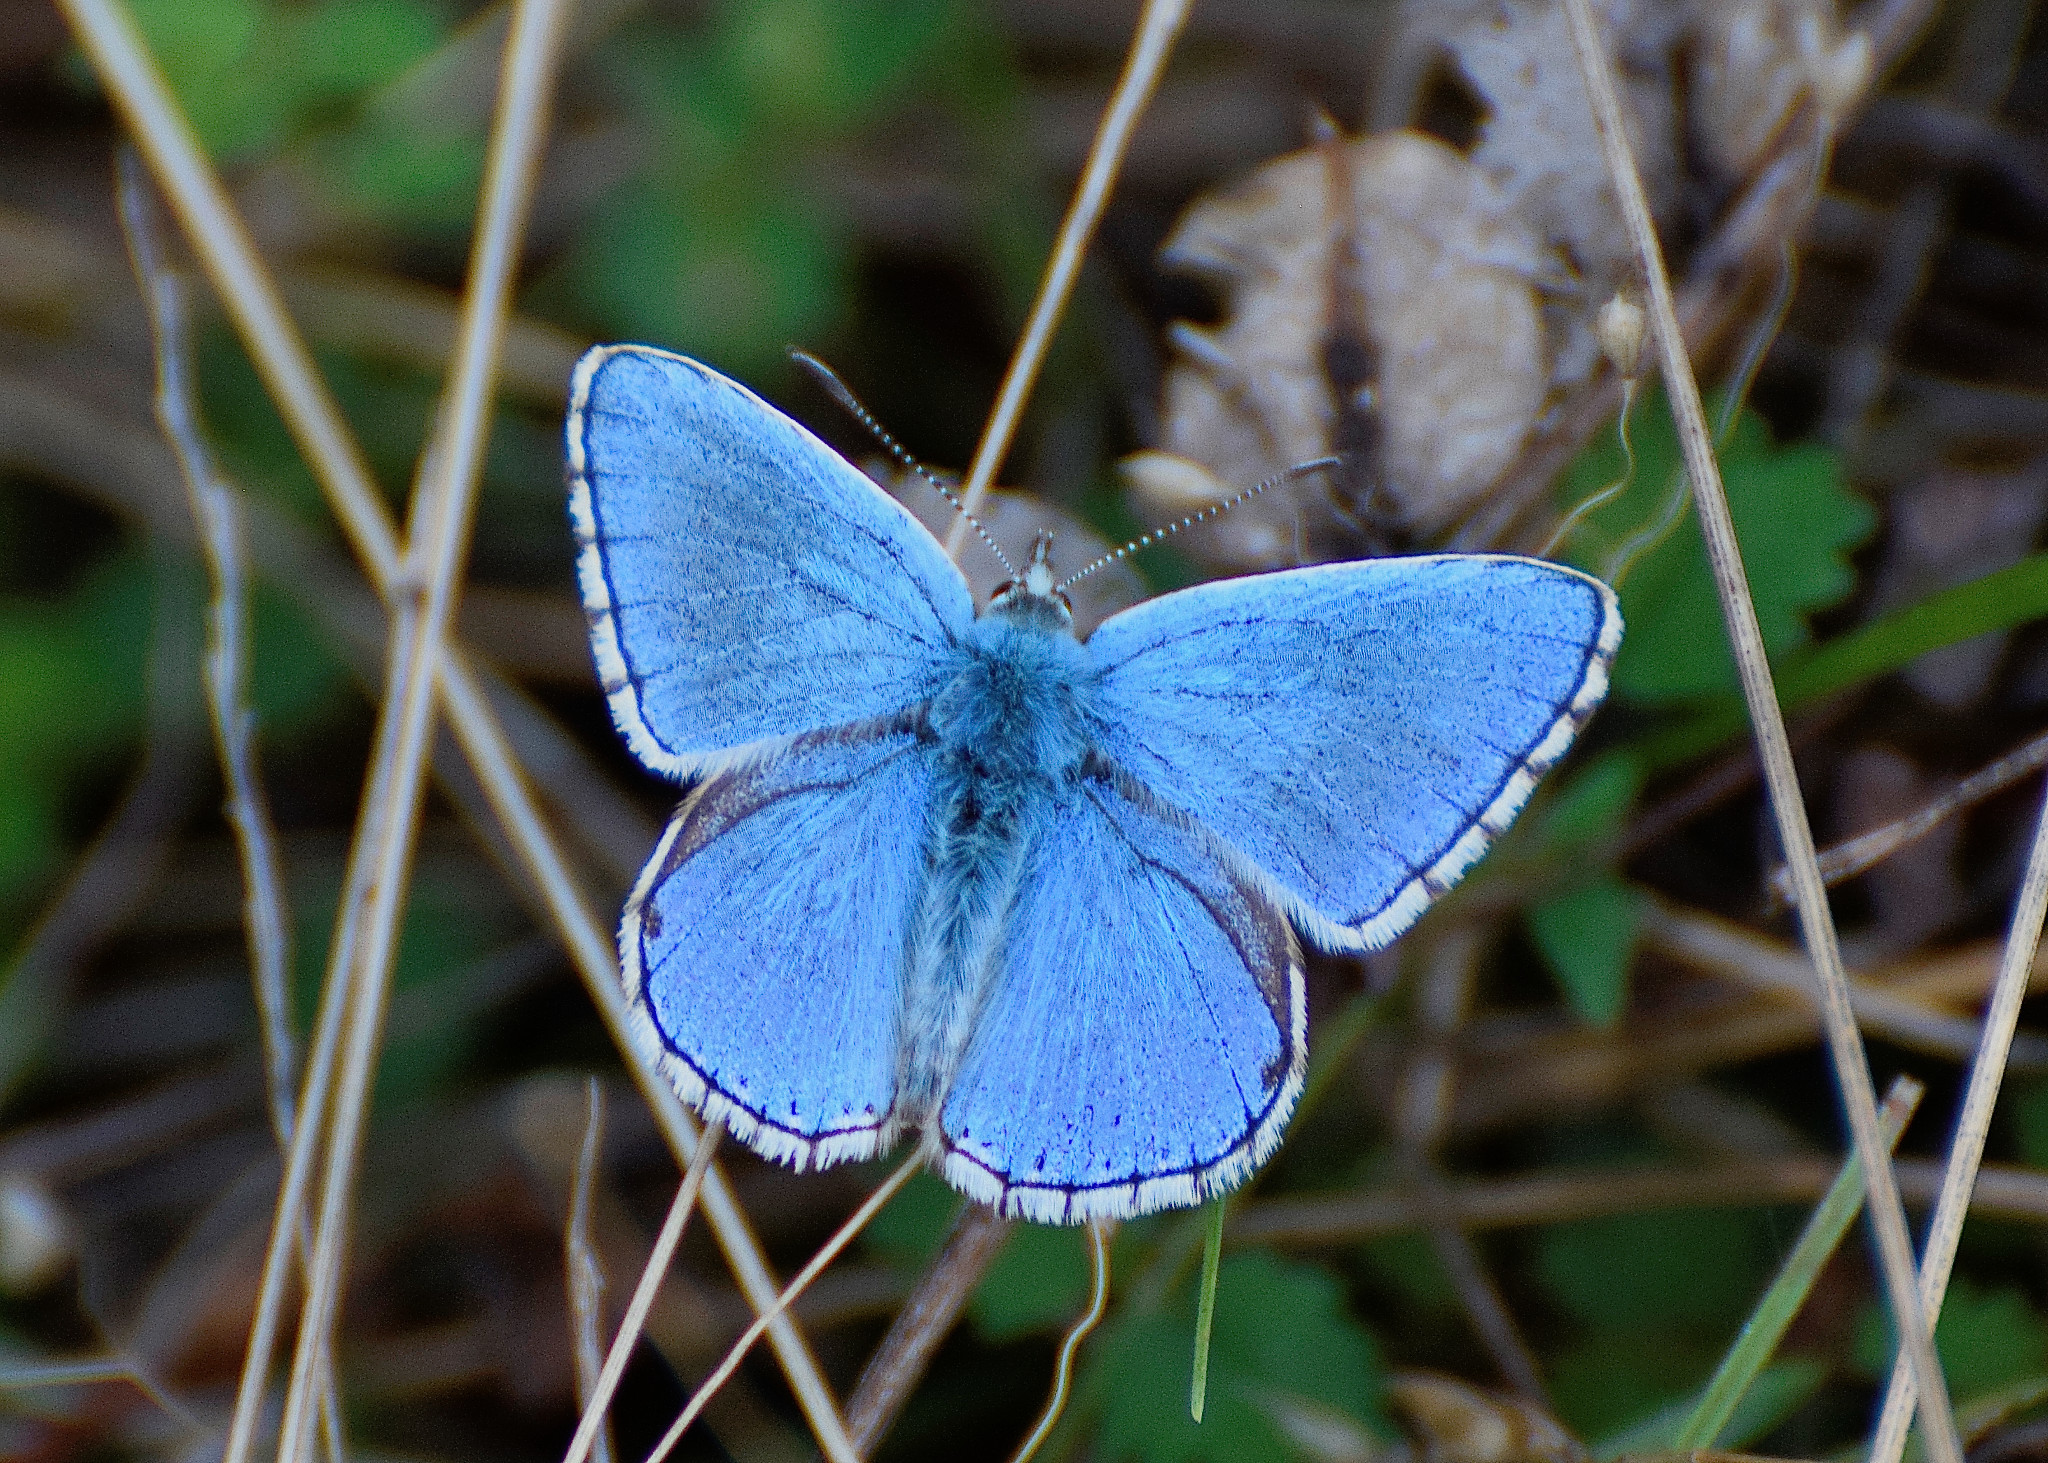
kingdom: Animalia
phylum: Arthropoda
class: Insecta
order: Lepidoptera
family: Lycaenidae
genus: Lysandra
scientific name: Lysandra bellargus
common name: Adonis blue
